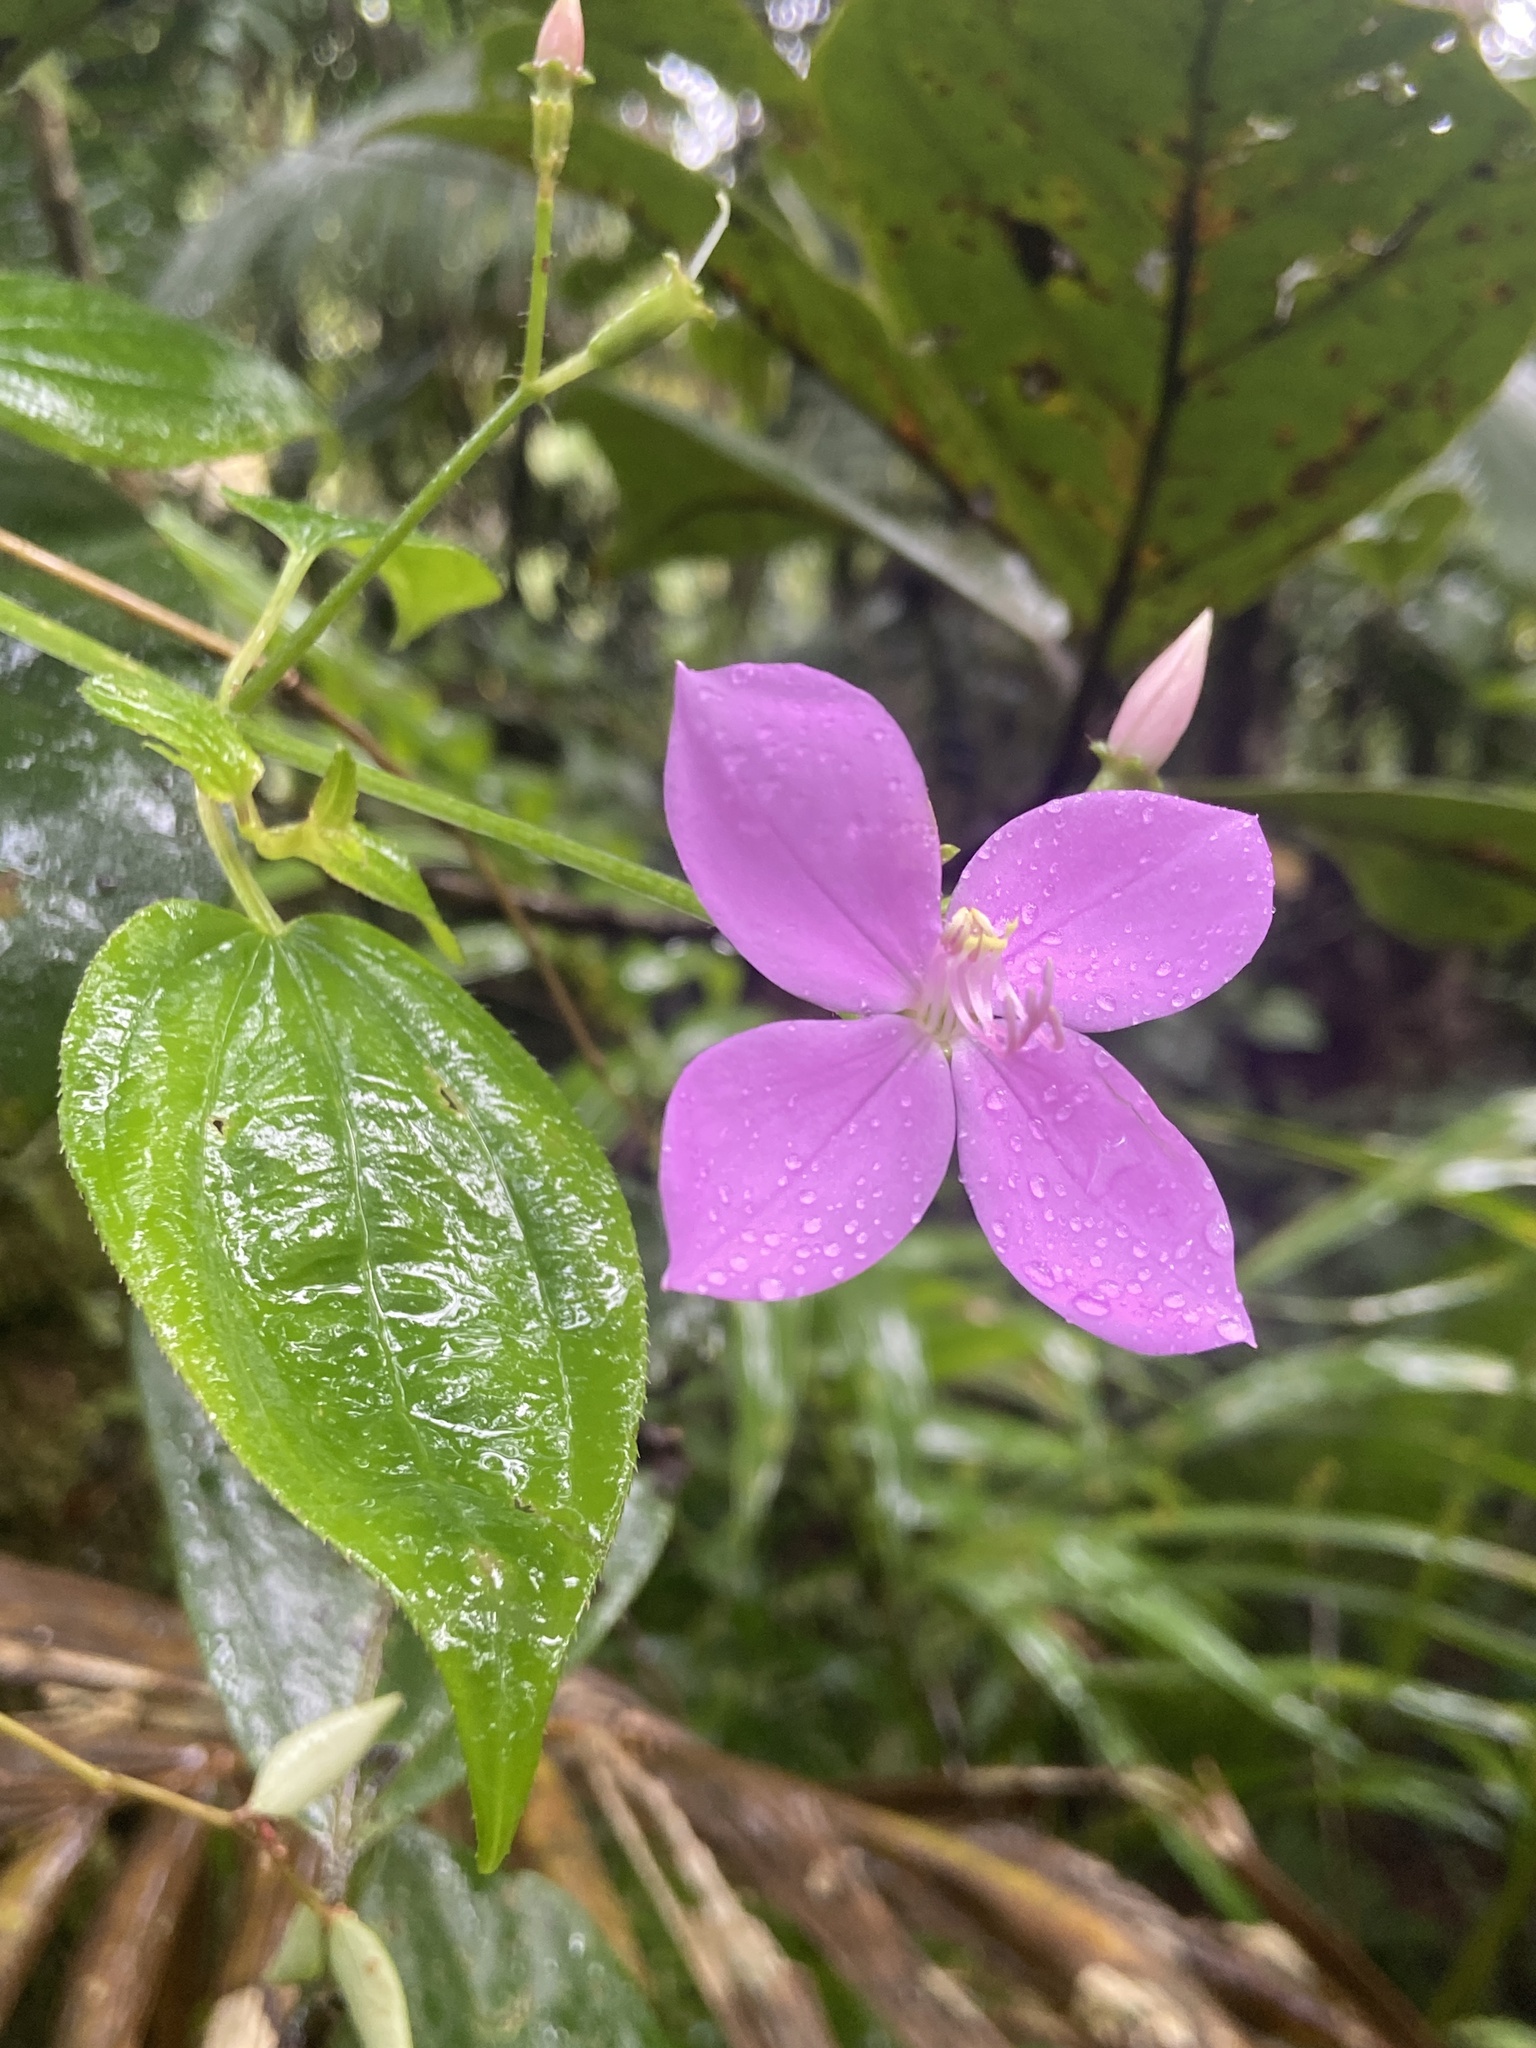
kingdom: Plantae
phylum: Tracheophyta
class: Magnoliopsida
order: Myrtales
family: Melastomataceae
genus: Arthrostemma
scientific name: Arthrostemma ciliatum
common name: Everblooming eavender
